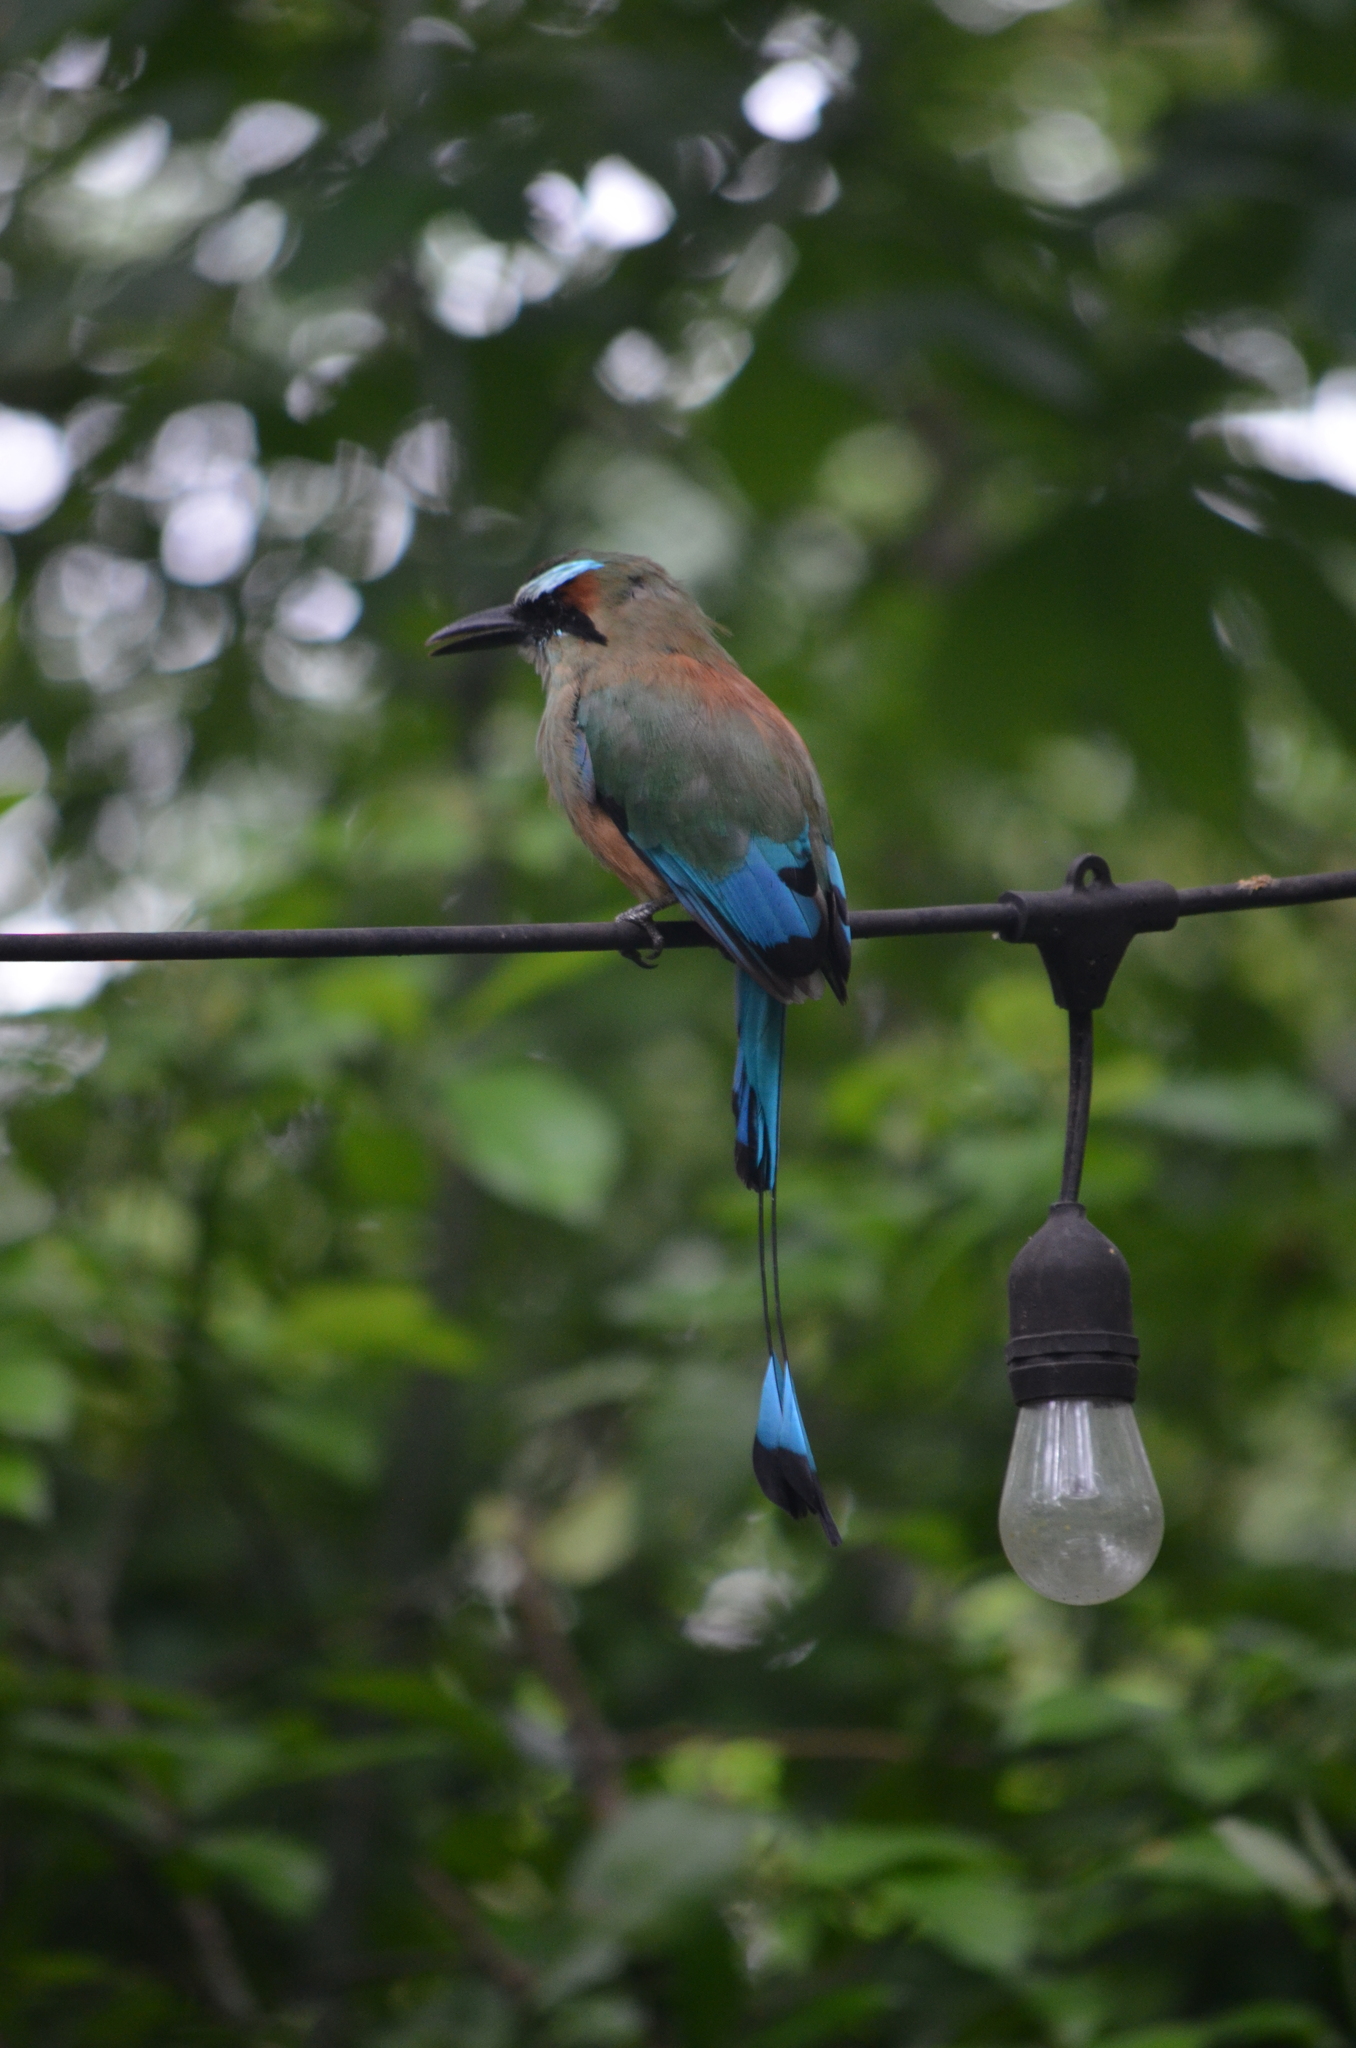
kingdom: Animalia
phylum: Chordata
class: Aves
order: Coraciiformes
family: Momotidae
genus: Eumomota
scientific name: Eumomota superciliosa
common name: Turquoise-browed motmot
